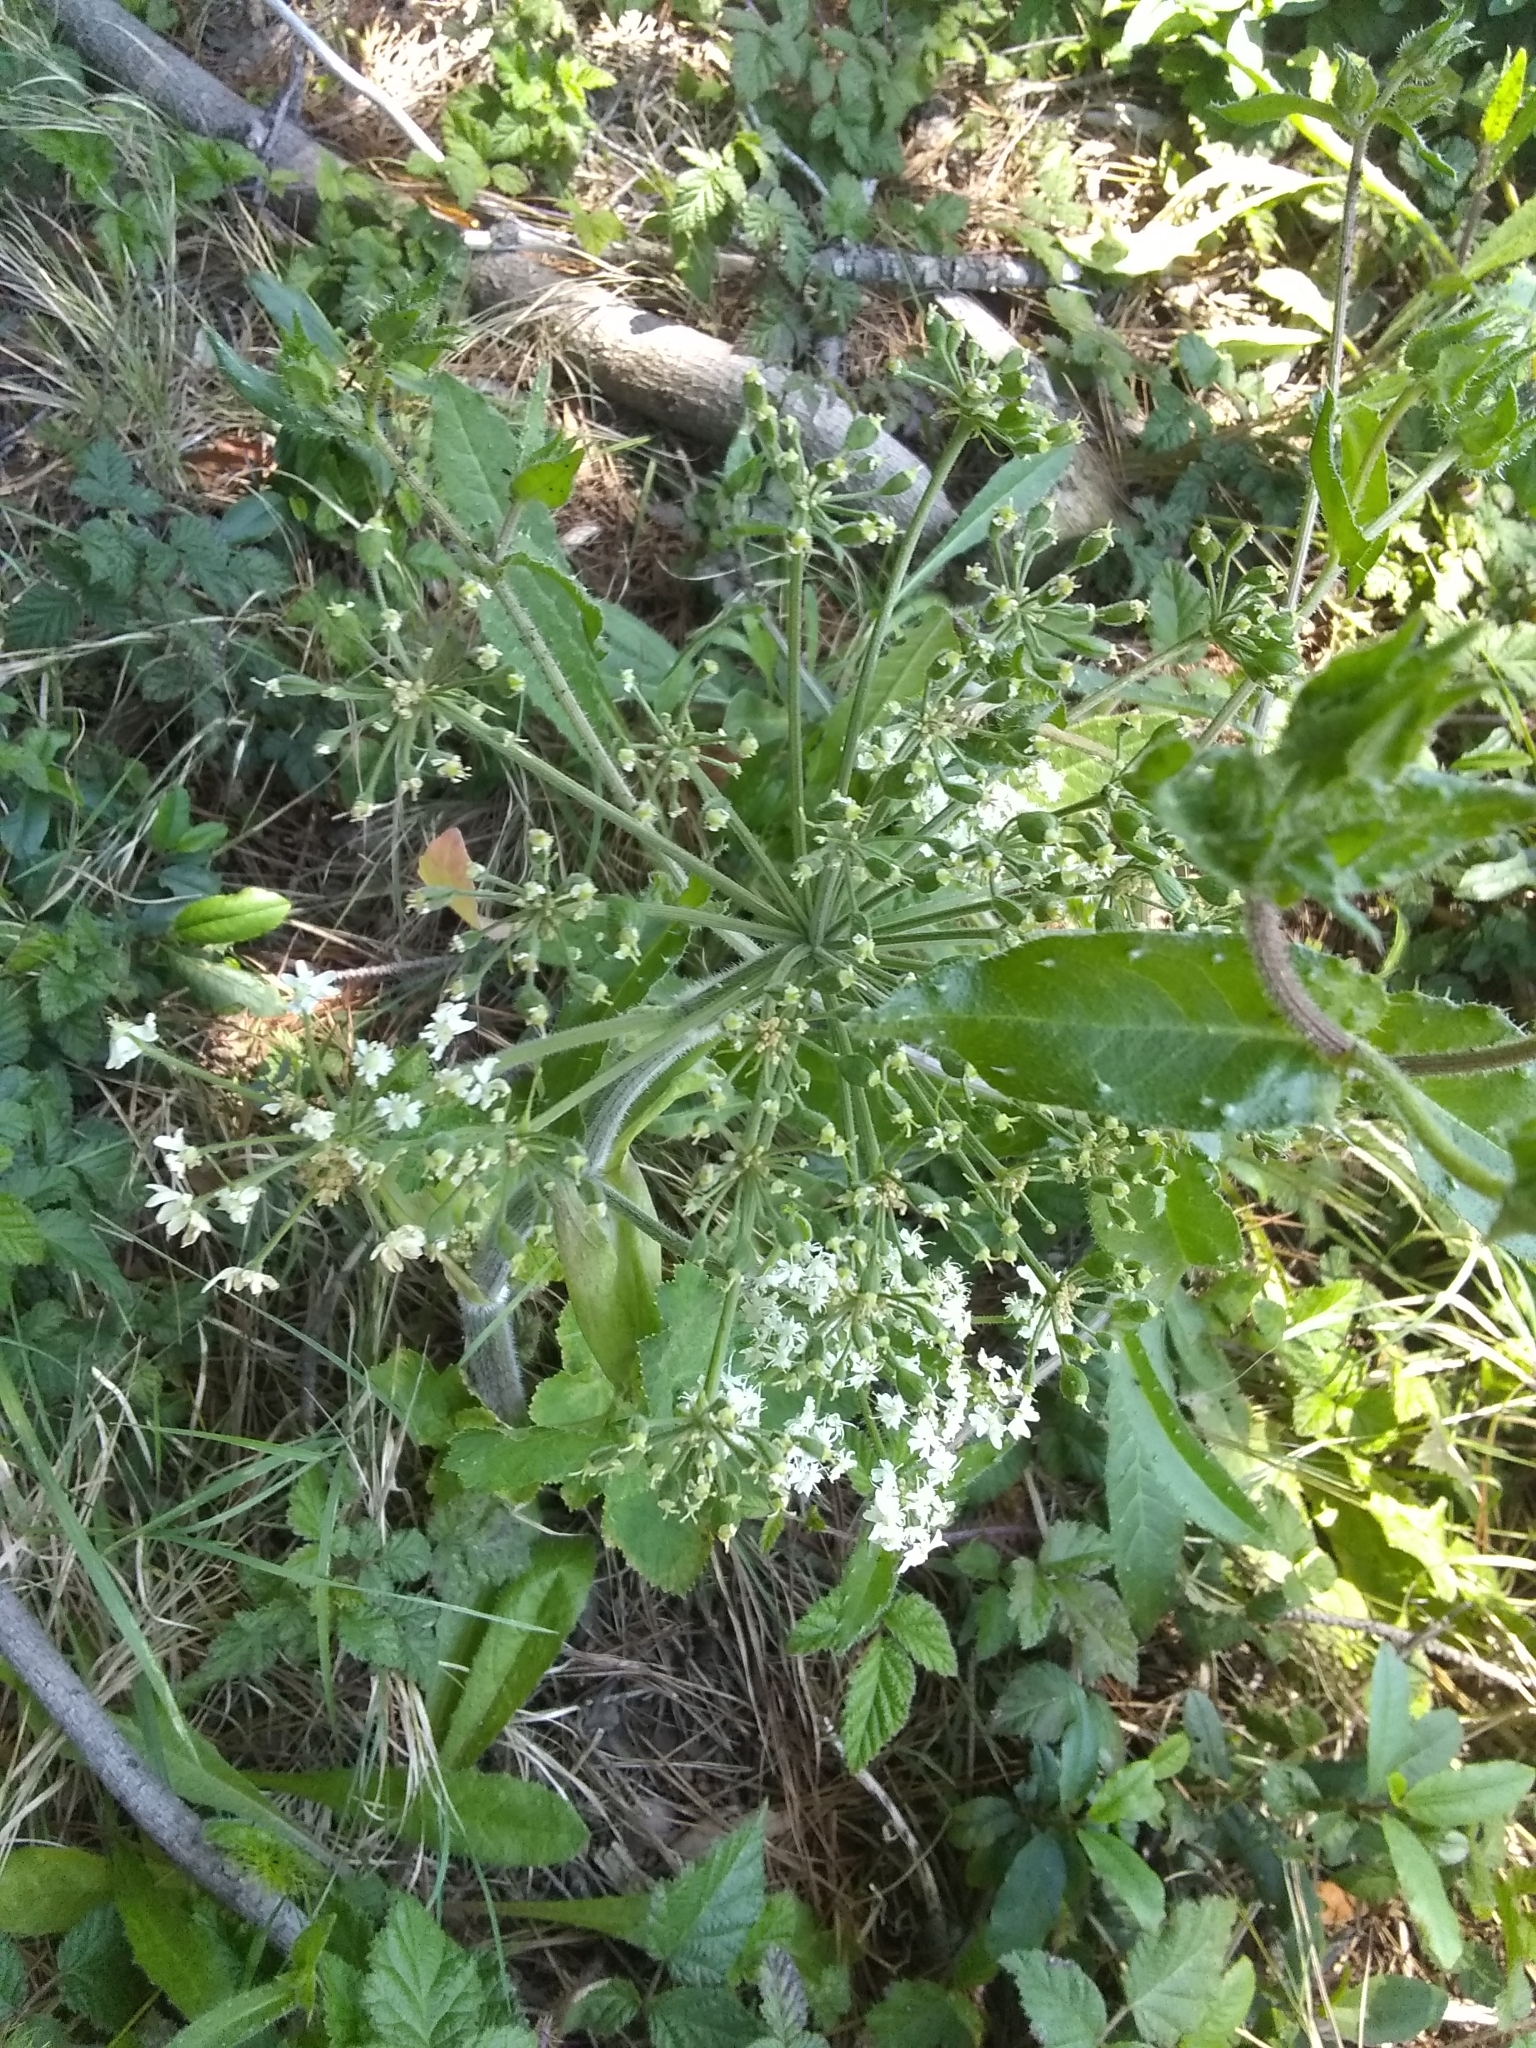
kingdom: Plantae
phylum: Tracheophyta
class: Magnoliopsida
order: Apiales
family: Apiaceae
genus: Heracleum
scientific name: Heracleum maximum
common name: American cow parsnip
